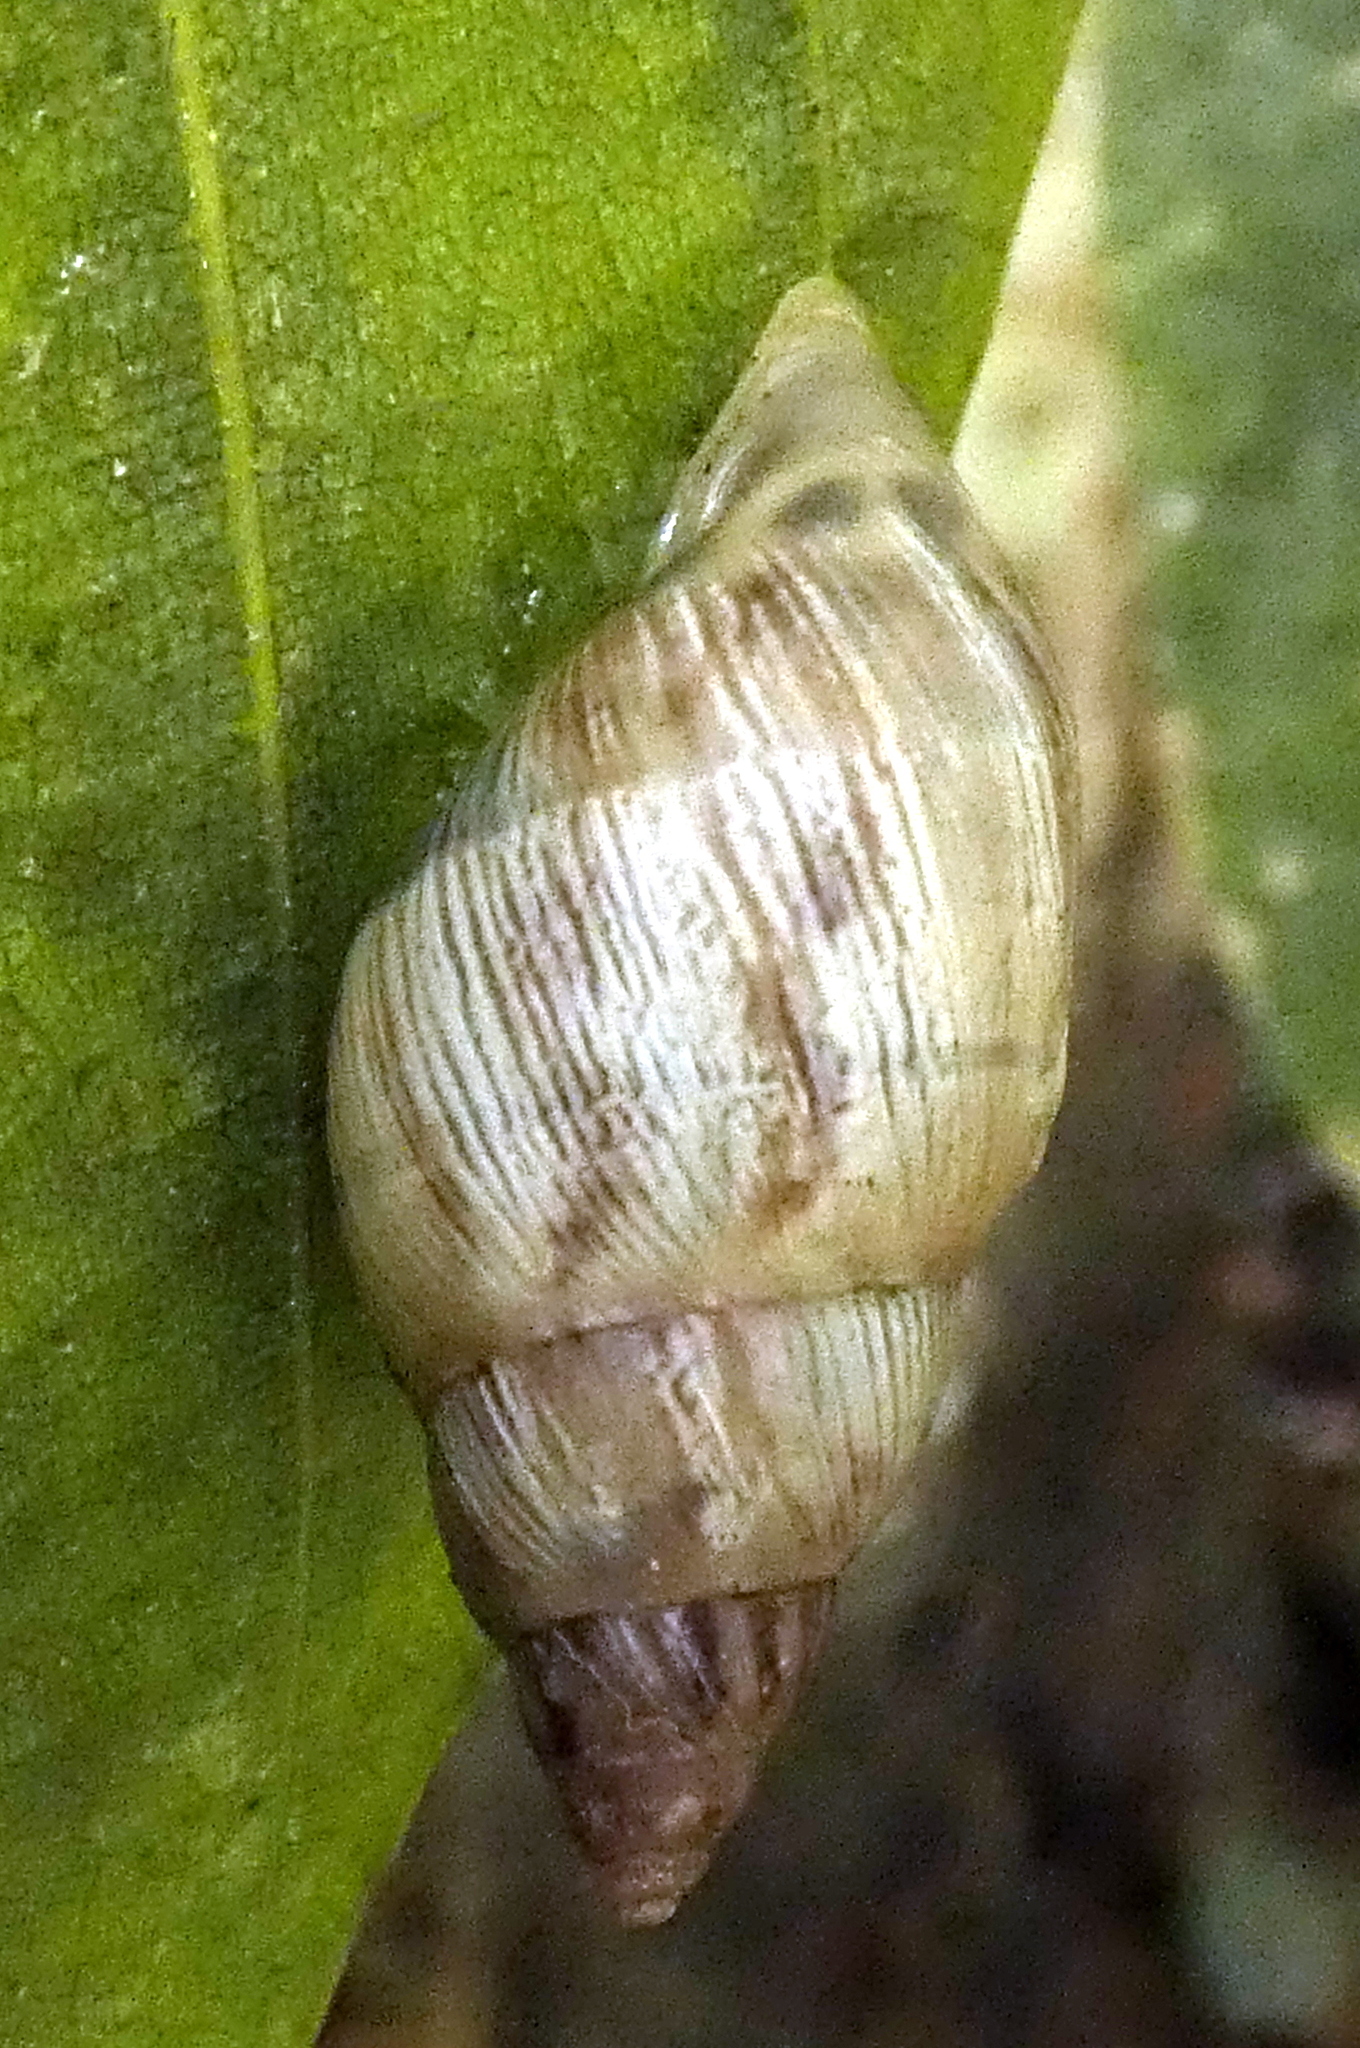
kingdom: Animalia
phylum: Mollusca
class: Gastropoda
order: Stylommatophora
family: Bulimulidae
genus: Drymaeus
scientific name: Drymaeus papyraceus
